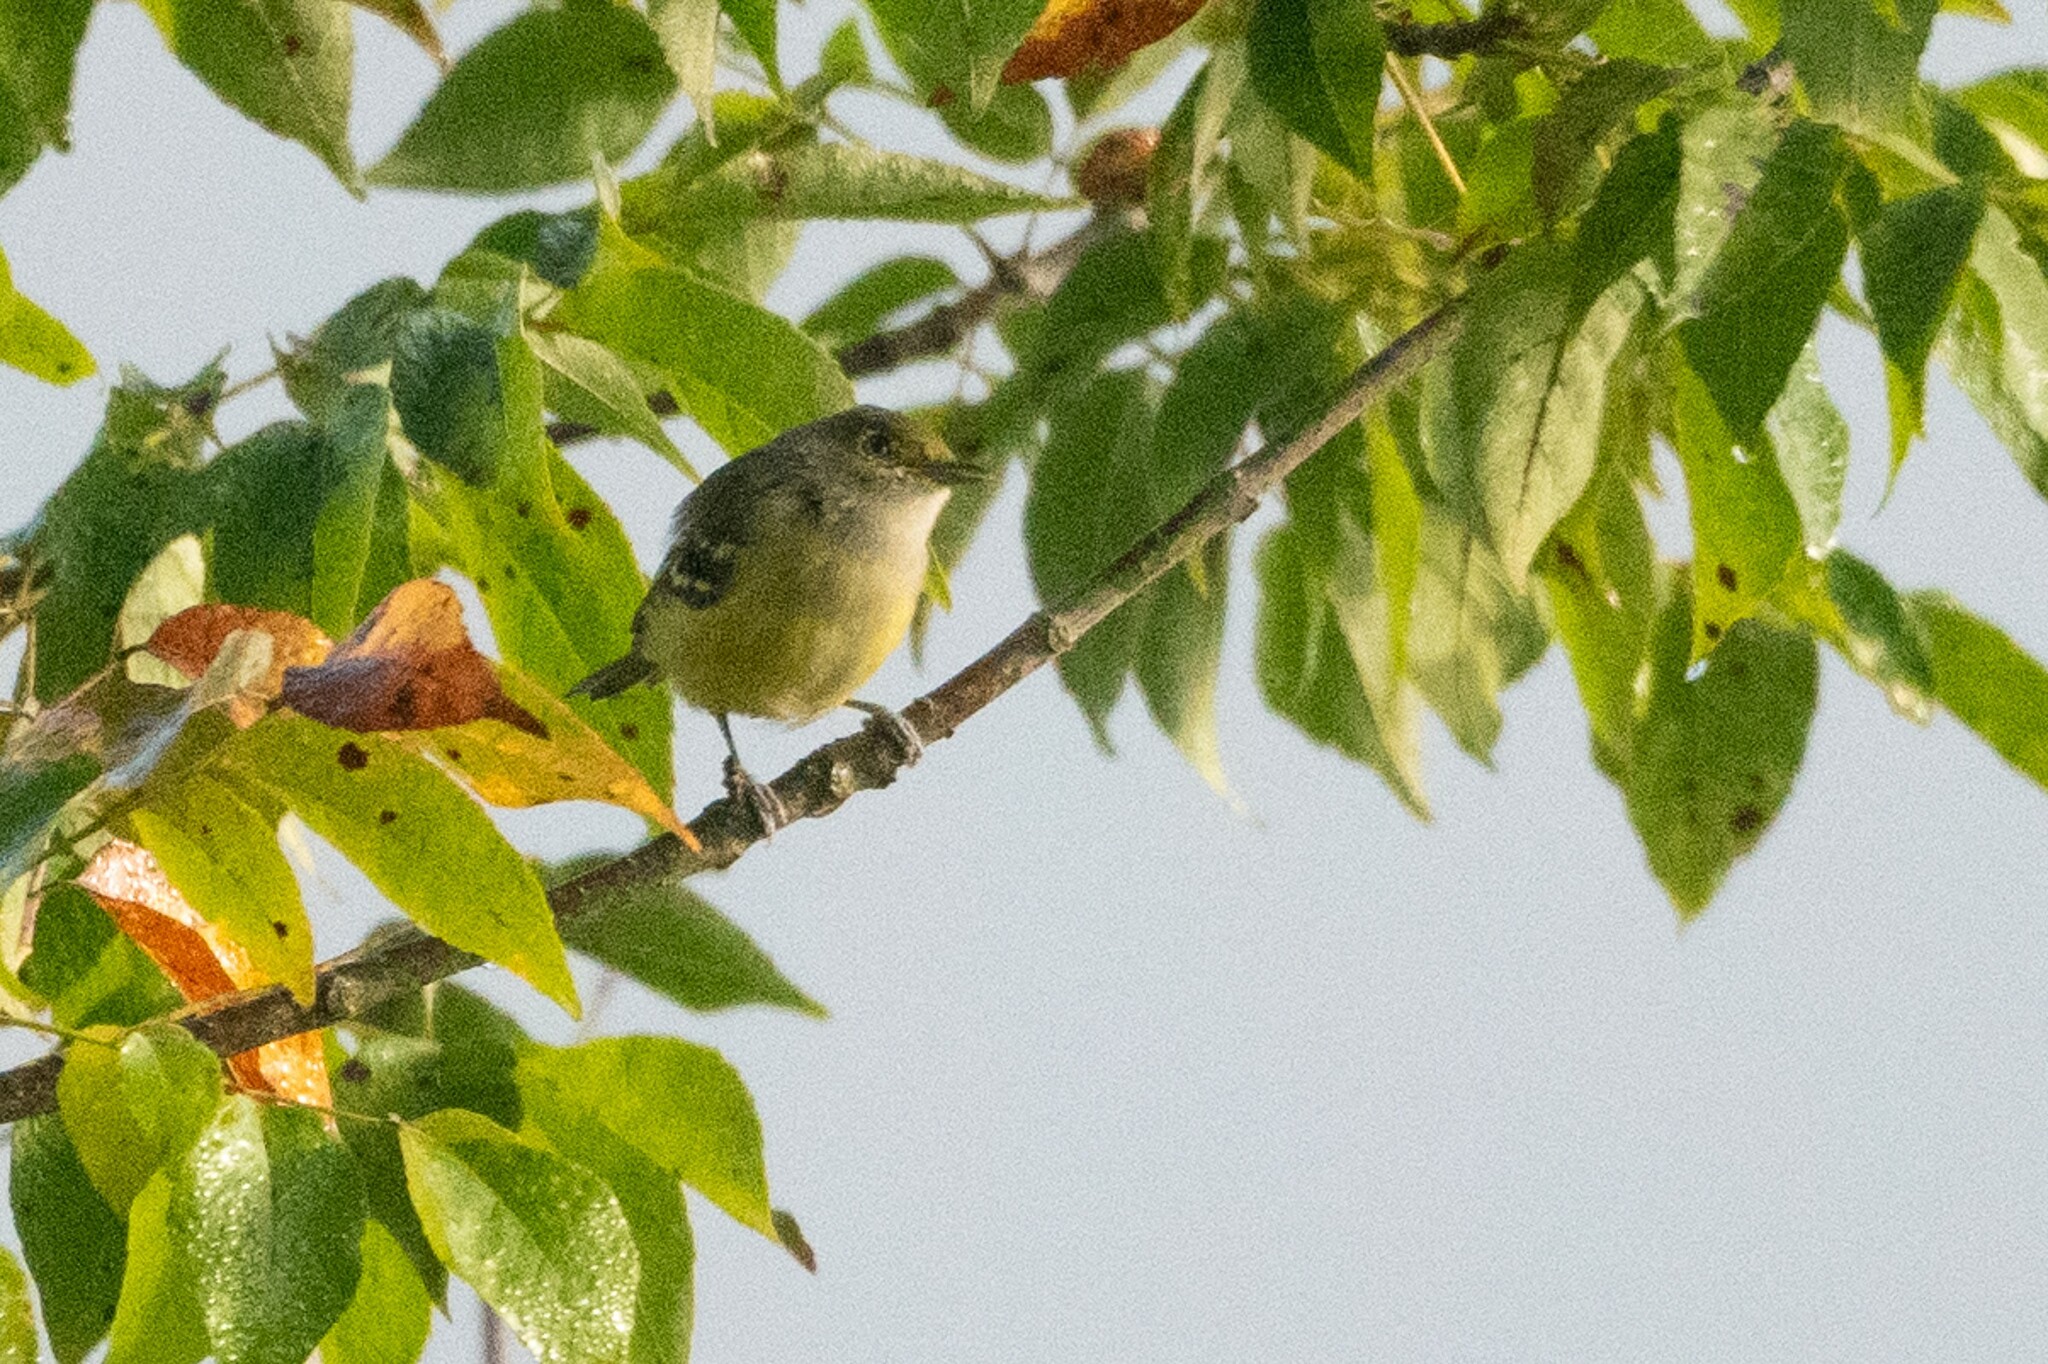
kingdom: Animalia
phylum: Chordata
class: Aves
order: Passeriformes
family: Vireonidae
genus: Vireo
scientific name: Vireo griseus
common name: White-eyed vireo
